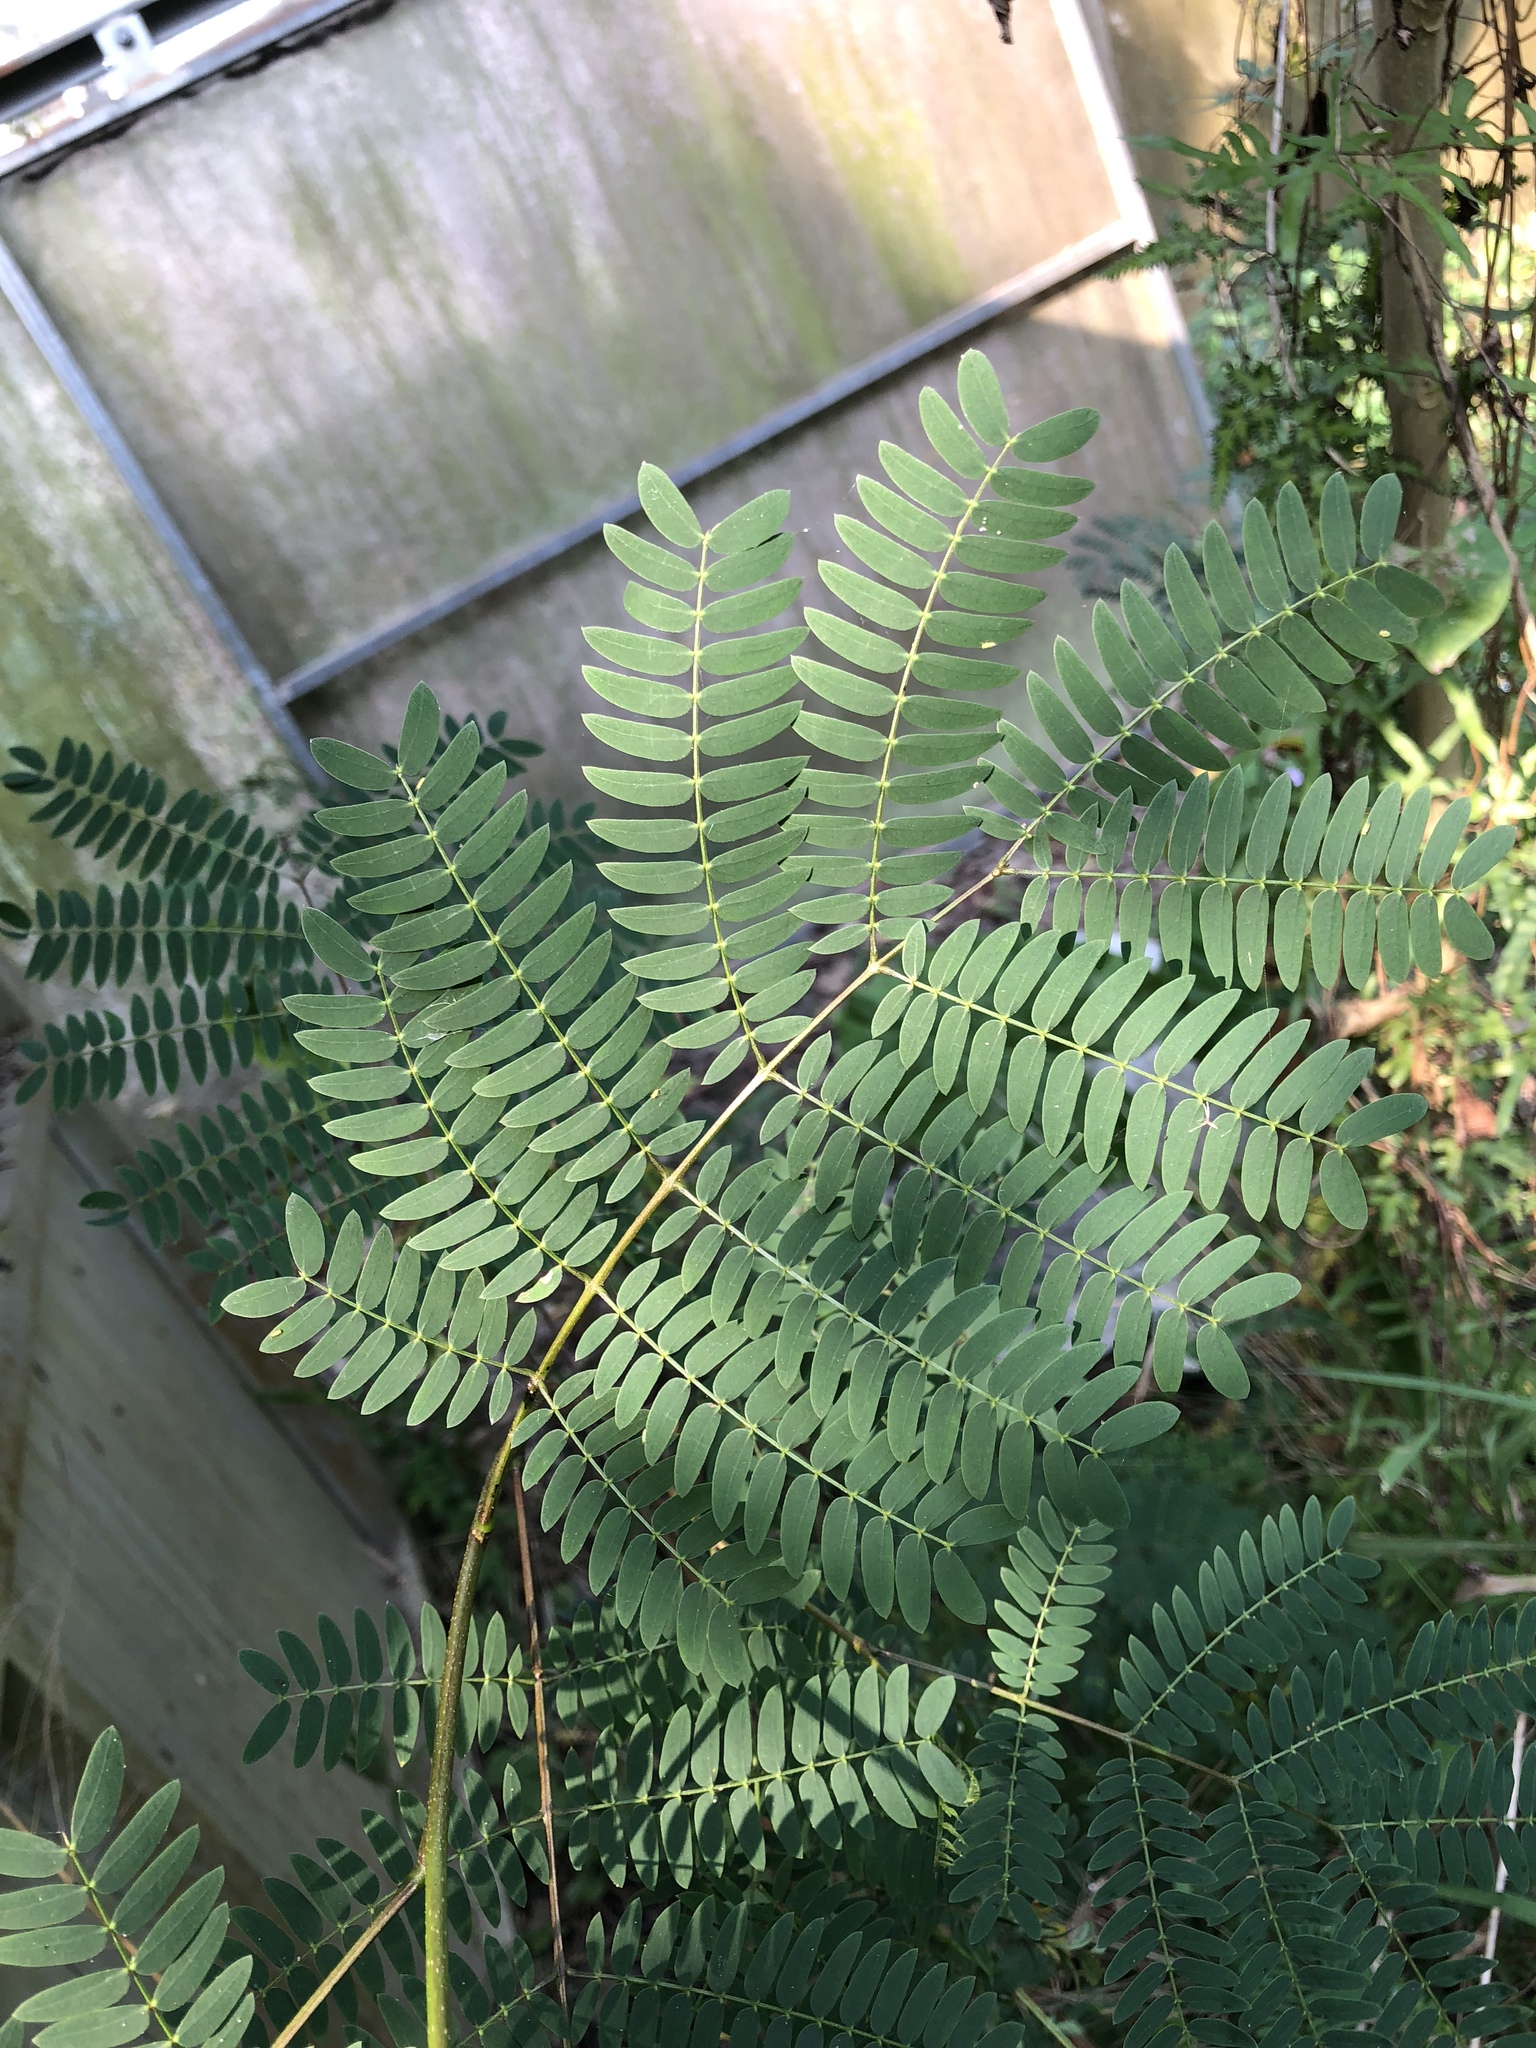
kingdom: Plantae
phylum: Tracheophyta
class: Magnoliopsida
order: Fabales
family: Fabaceae
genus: Leucaena
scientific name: Leucaena leucocephala
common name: White leadtree
